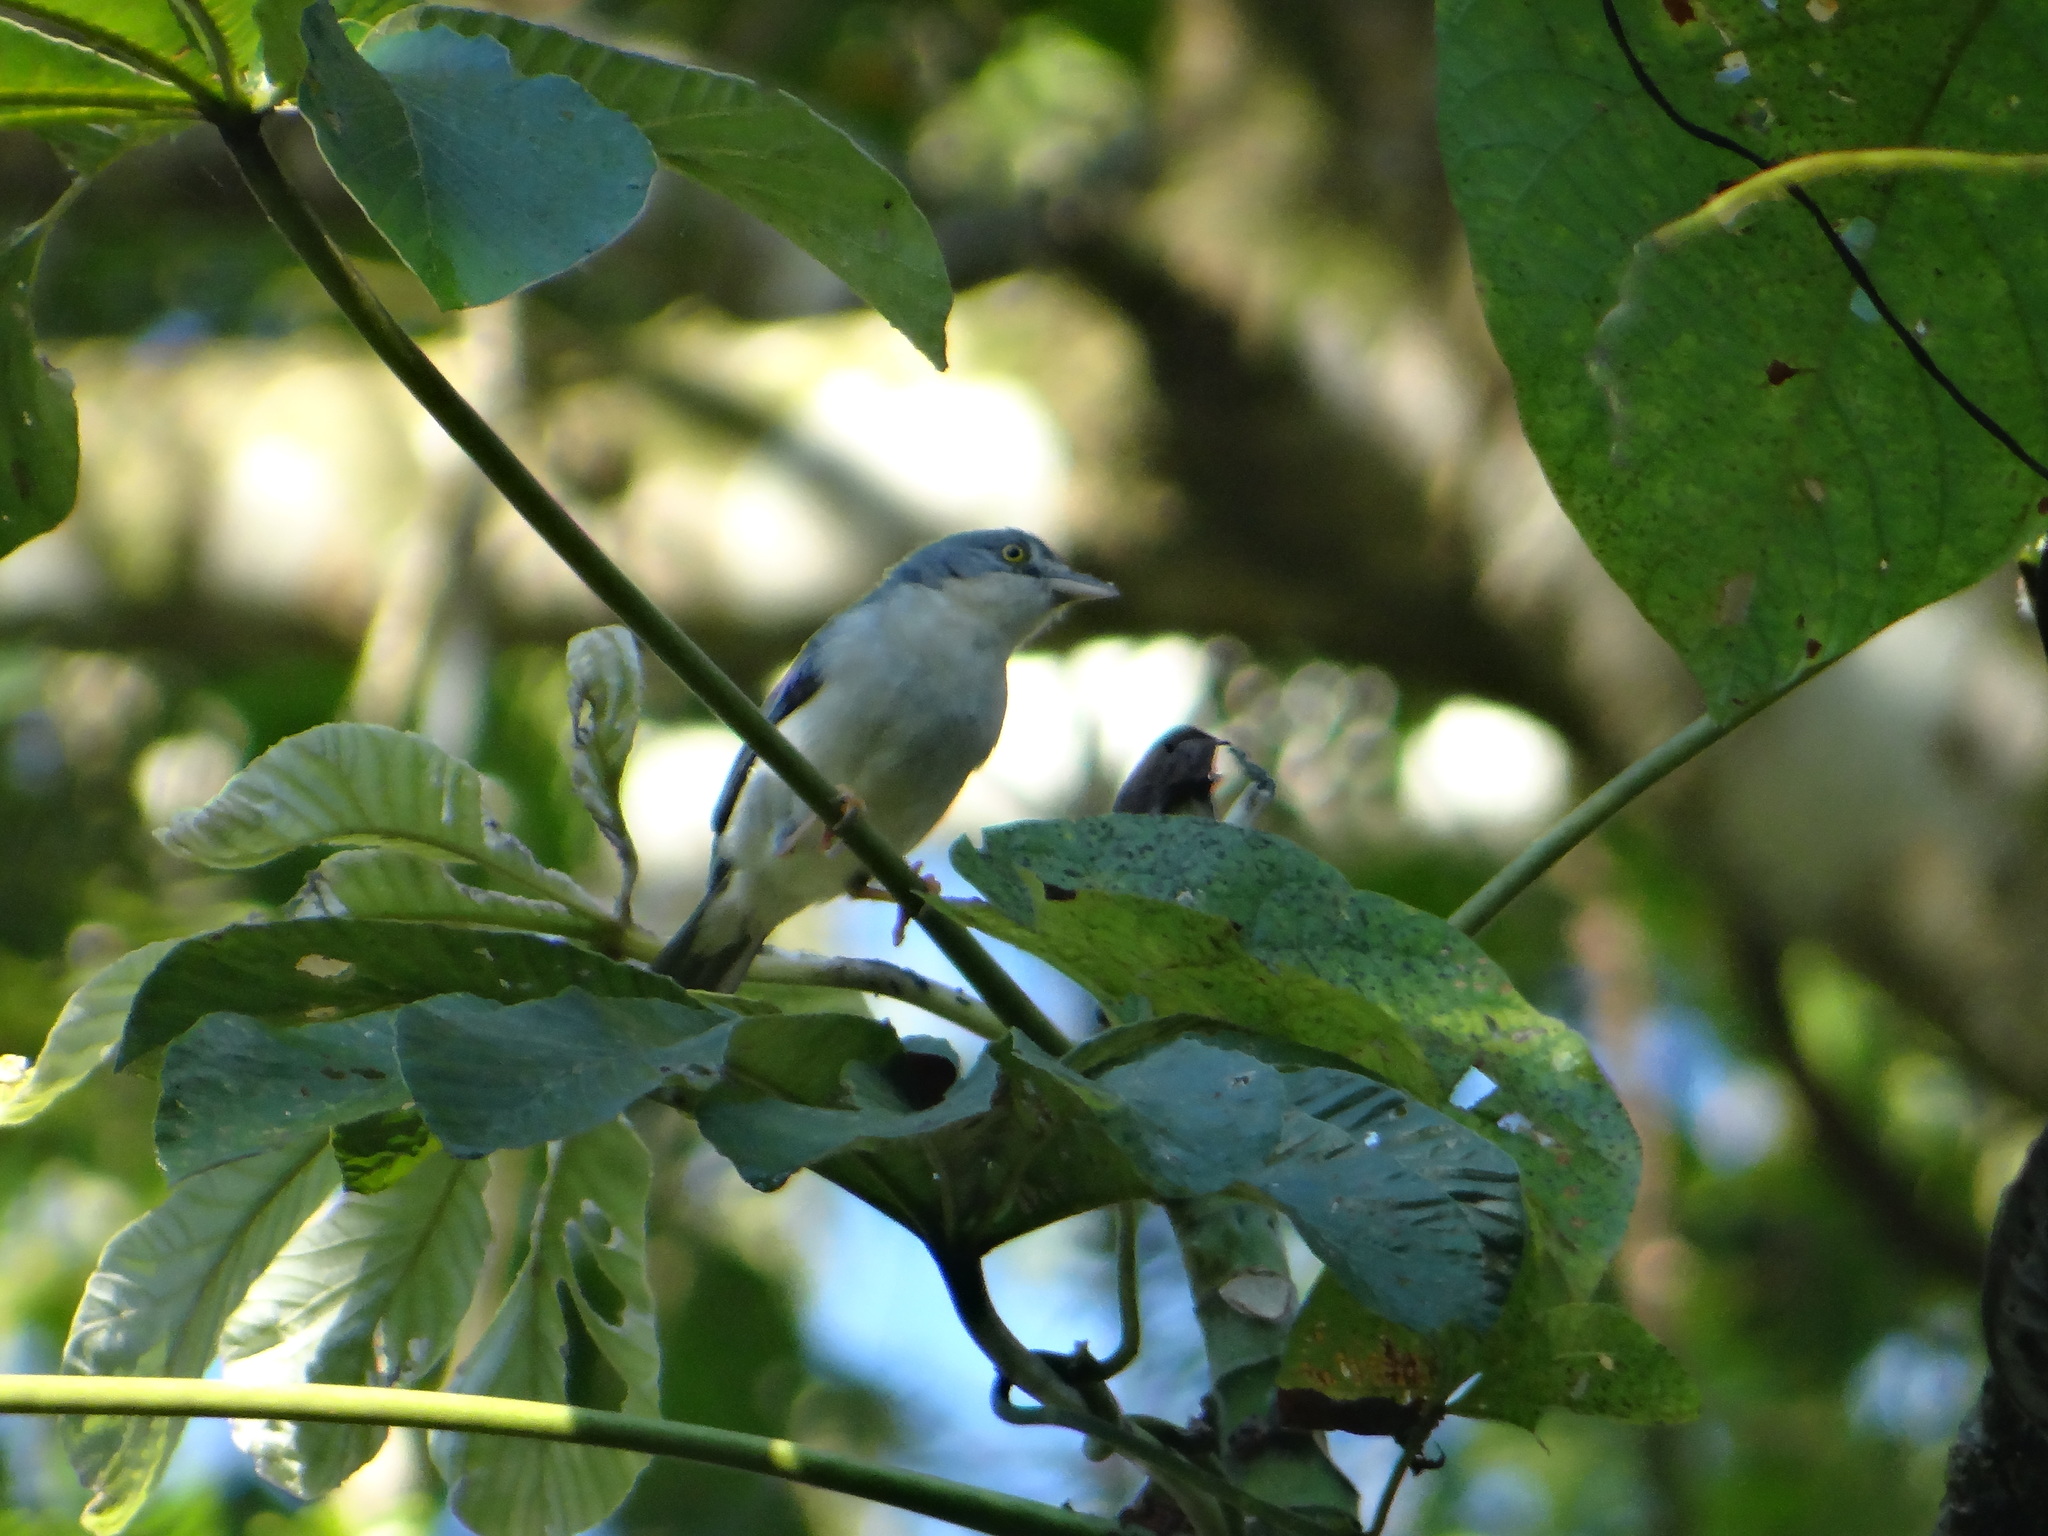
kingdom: Animalia
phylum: Chordata
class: Aves
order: Passeriformes
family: Thraupidae
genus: Nemosia
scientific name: Nemosia pileata
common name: Hooded tanager
